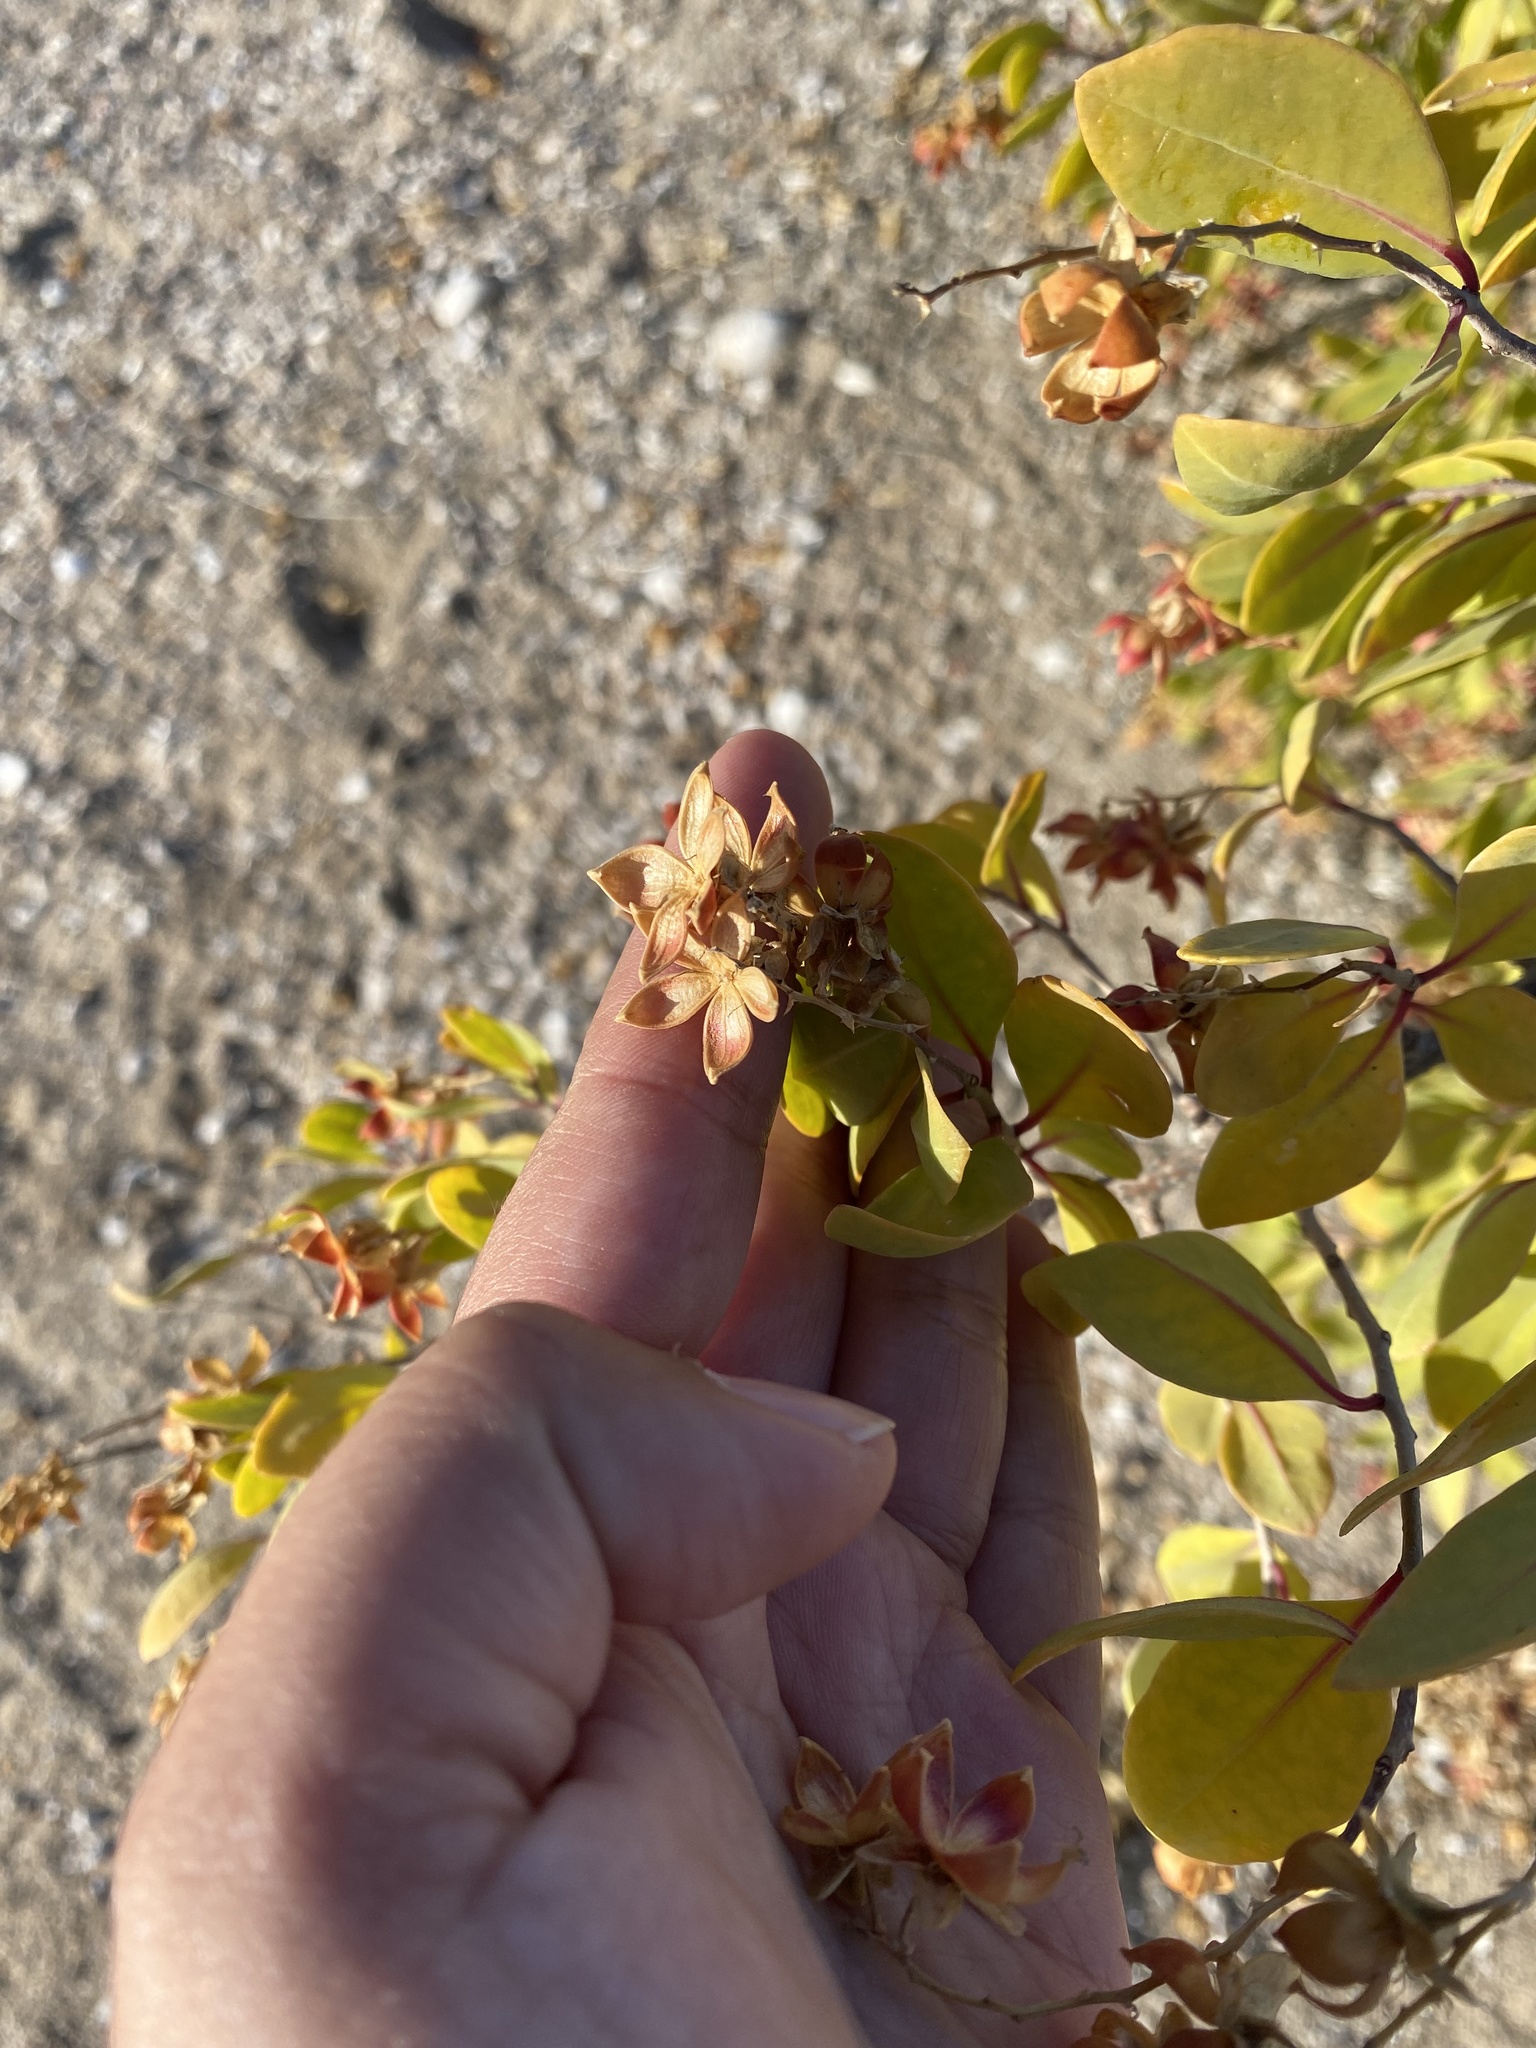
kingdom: Plantae
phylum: Tracheophyta
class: Magnoliopsida
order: Caryophyllales
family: Stegnospermataceae
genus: Stegnosperma
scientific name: Stegnosperma halimifolium
